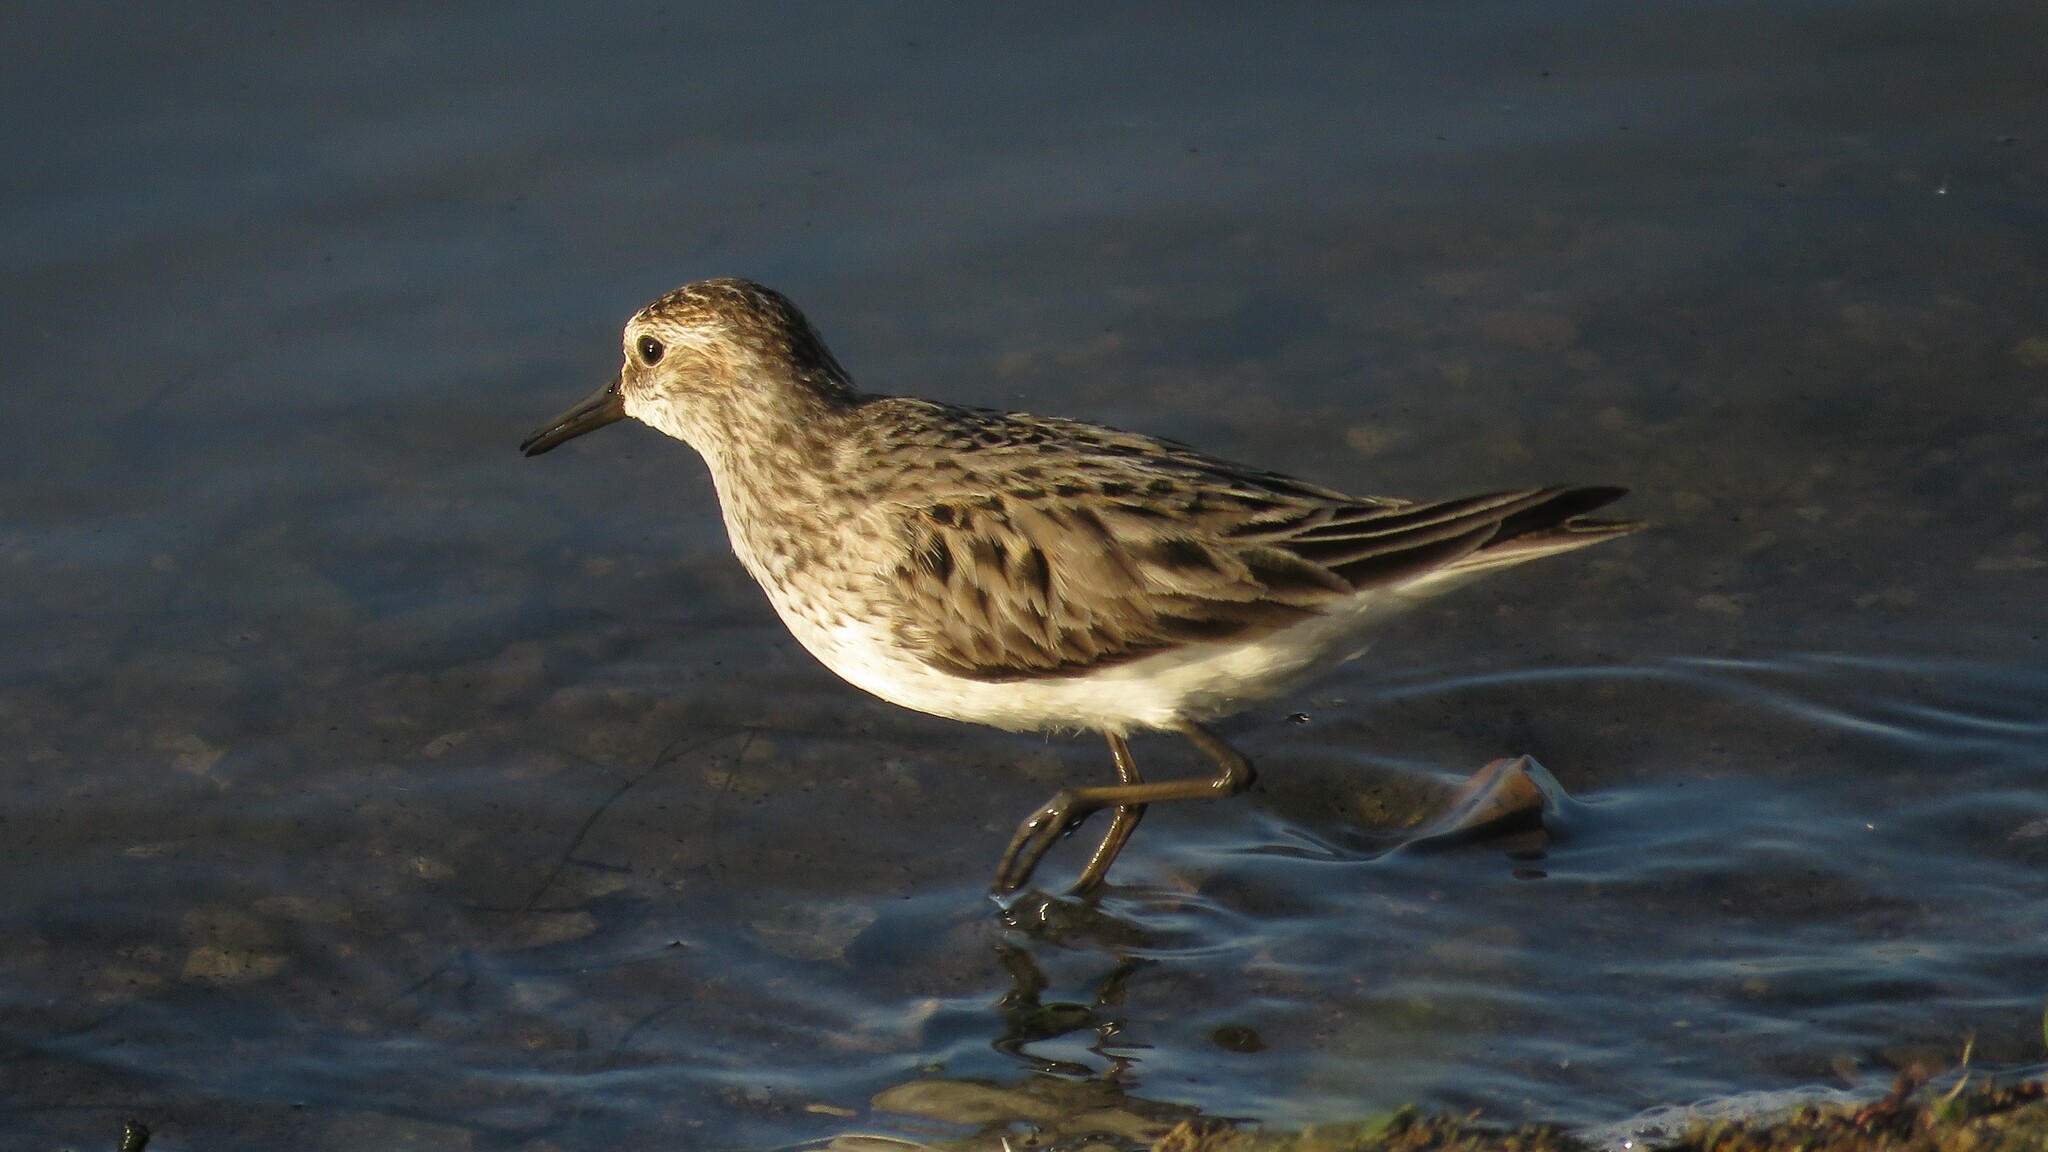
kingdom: Animalia
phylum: Chordata
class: Aves
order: Charadriiformes
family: Scolopacidae
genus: Calidris
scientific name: Calidris pusilla
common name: Semipalmated sandpiper
